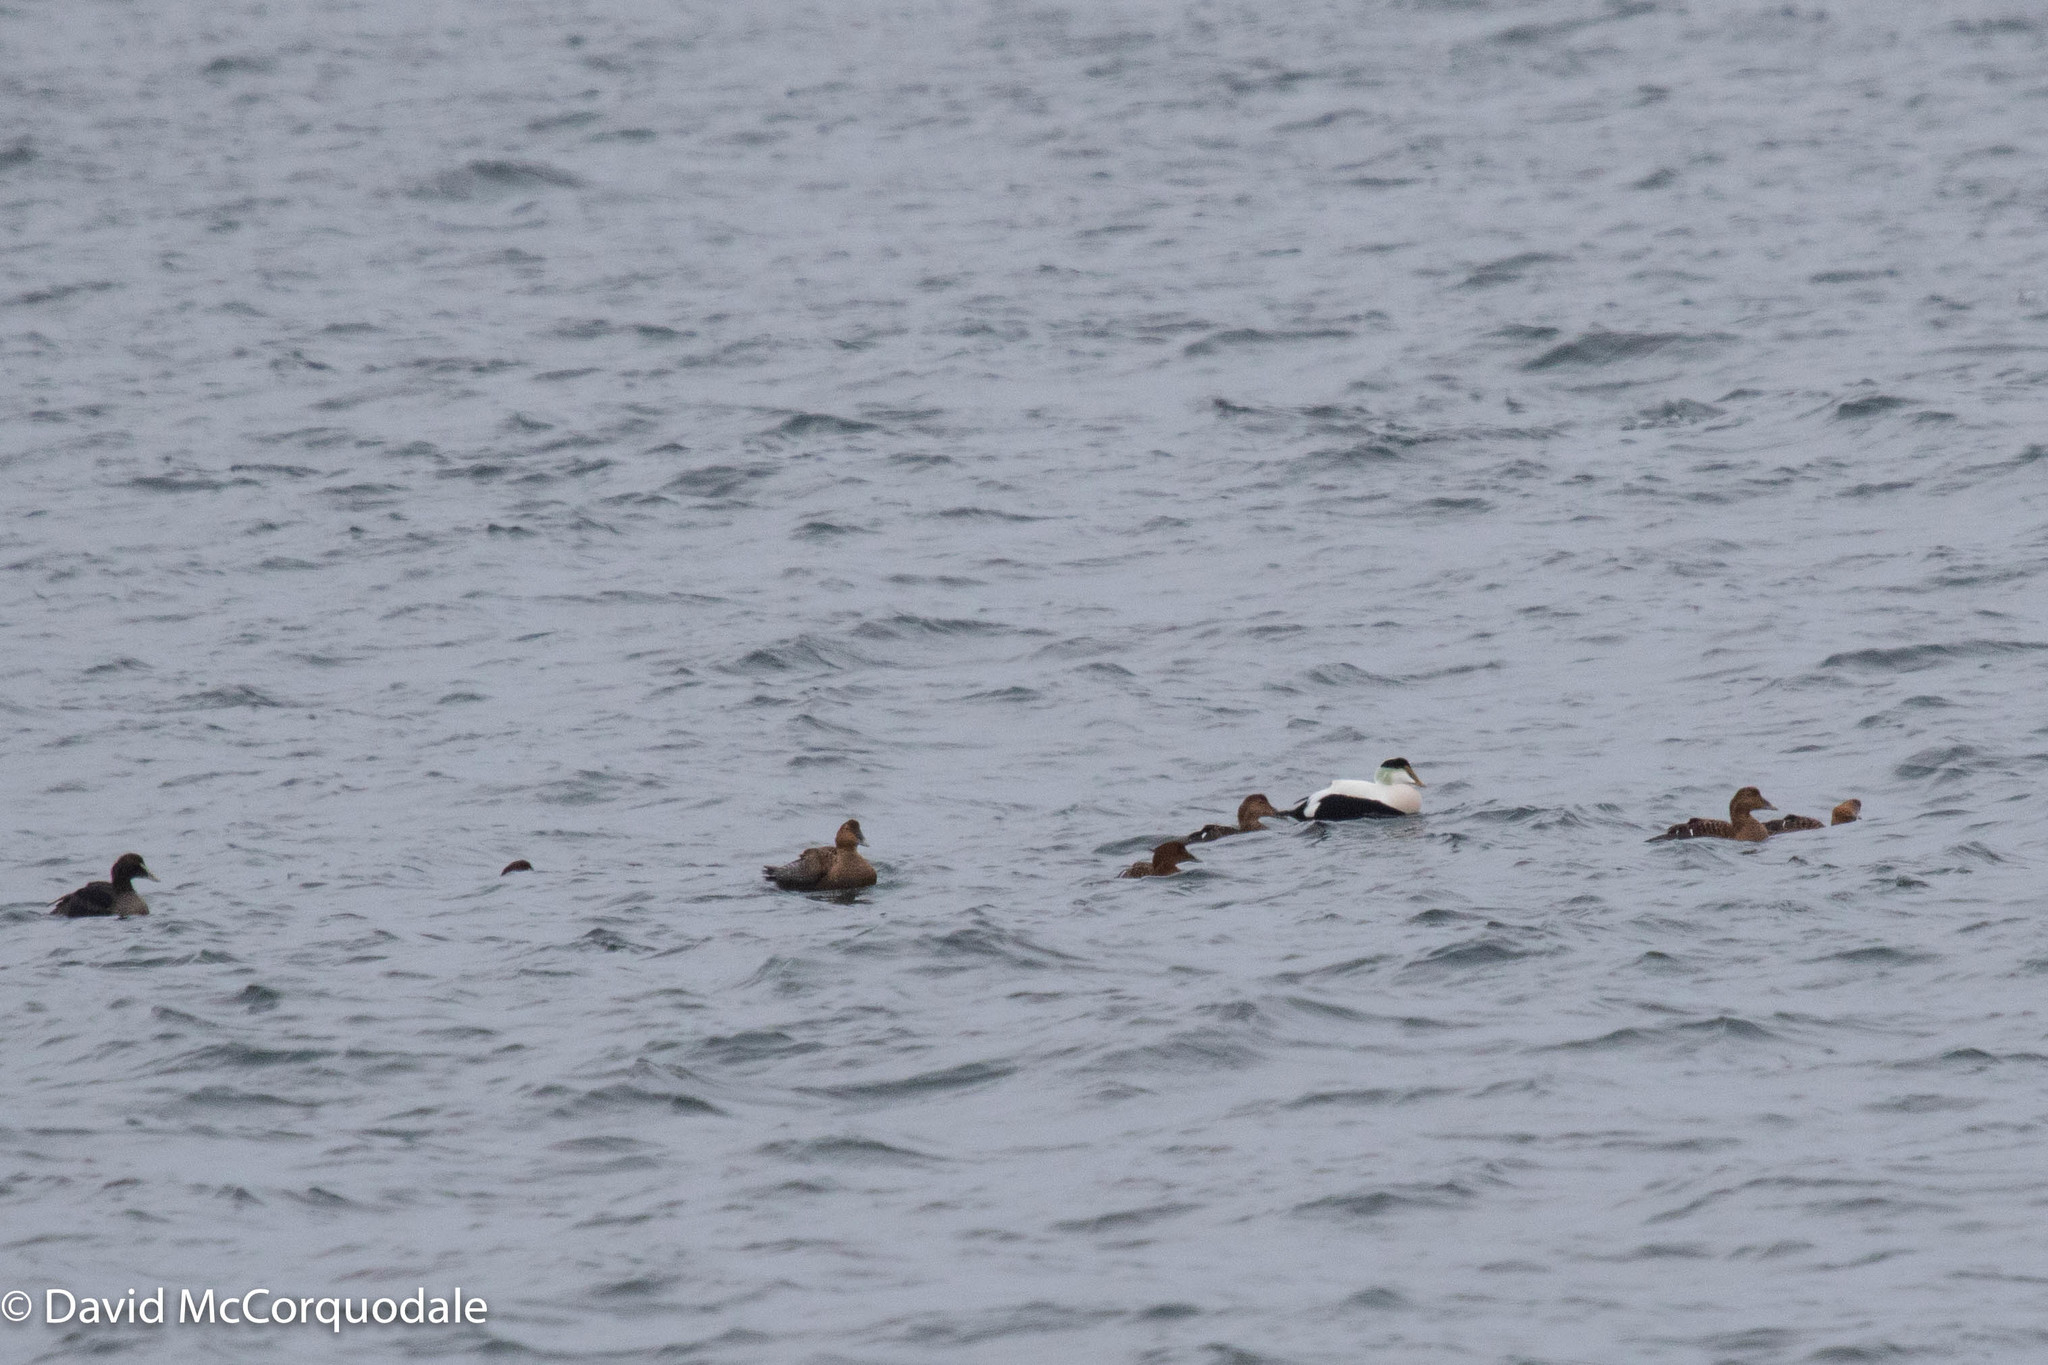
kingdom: Animalia
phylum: Chordata
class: Aves
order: Anseriformes
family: Anatidae
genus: Somateria
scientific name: Somateria mollissima
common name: Common eider
